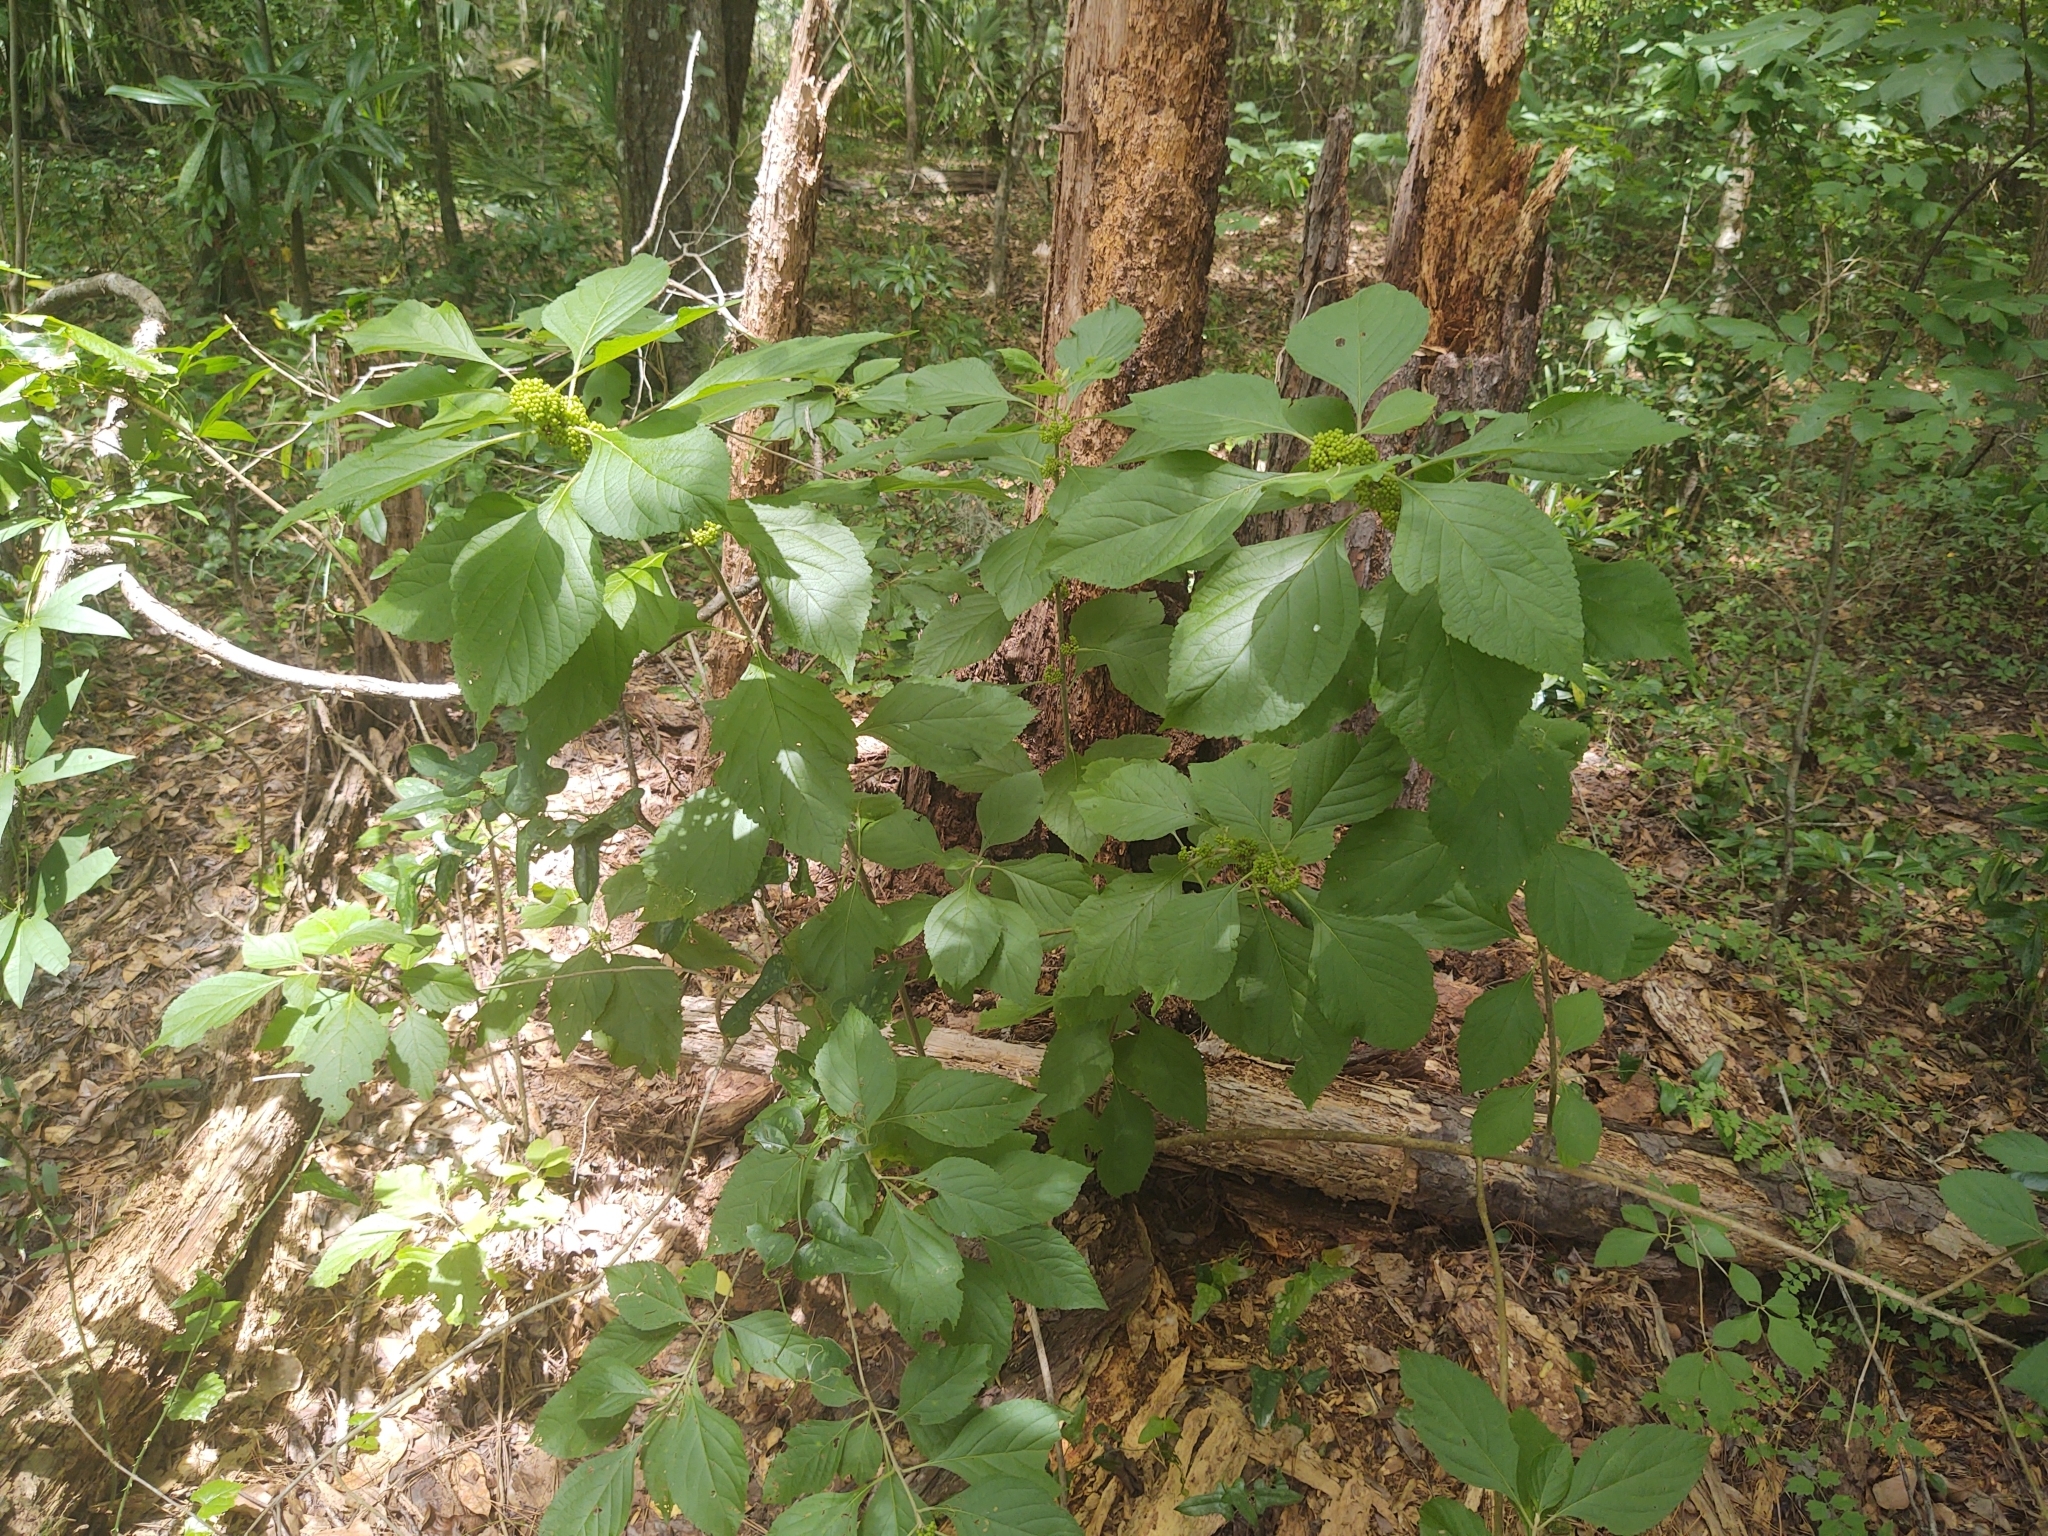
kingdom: Plantae
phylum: Tracheophyta
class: Magnoliopsida
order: Lamiales
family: Lamiaceae
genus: Callicarpa
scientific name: Callicarpa americana
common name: American beautyberry
